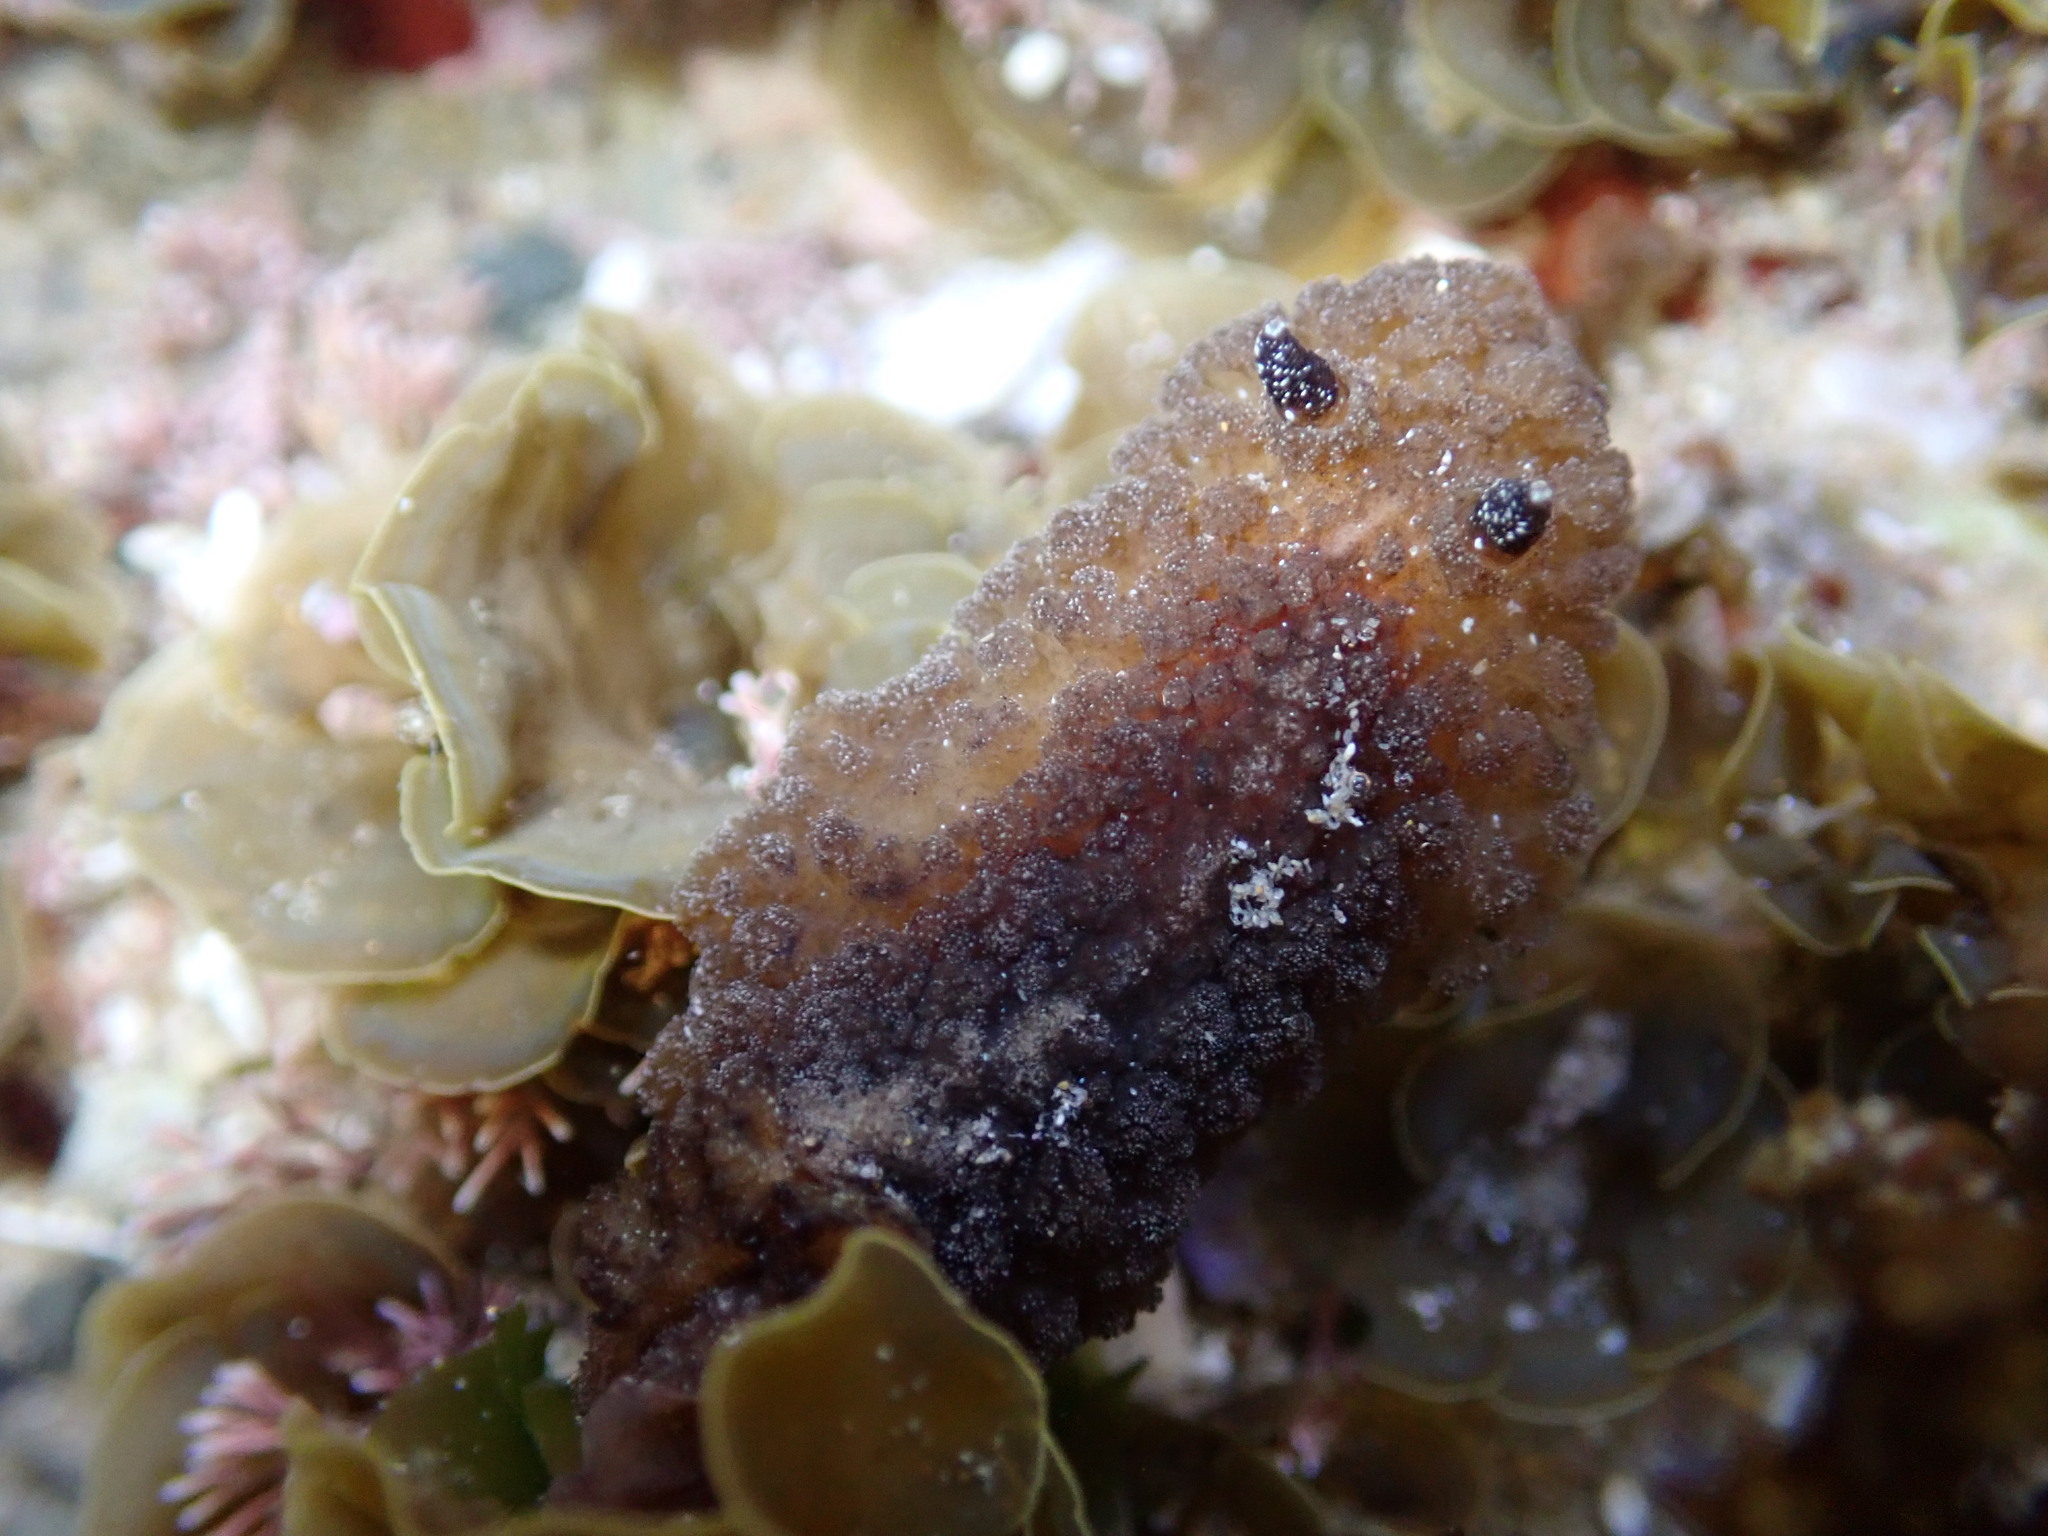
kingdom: Animalia
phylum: Mollusca
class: Gastropoda
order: Nudibranchia
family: Discodorididae
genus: Atagema
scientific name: Atagema intecta
